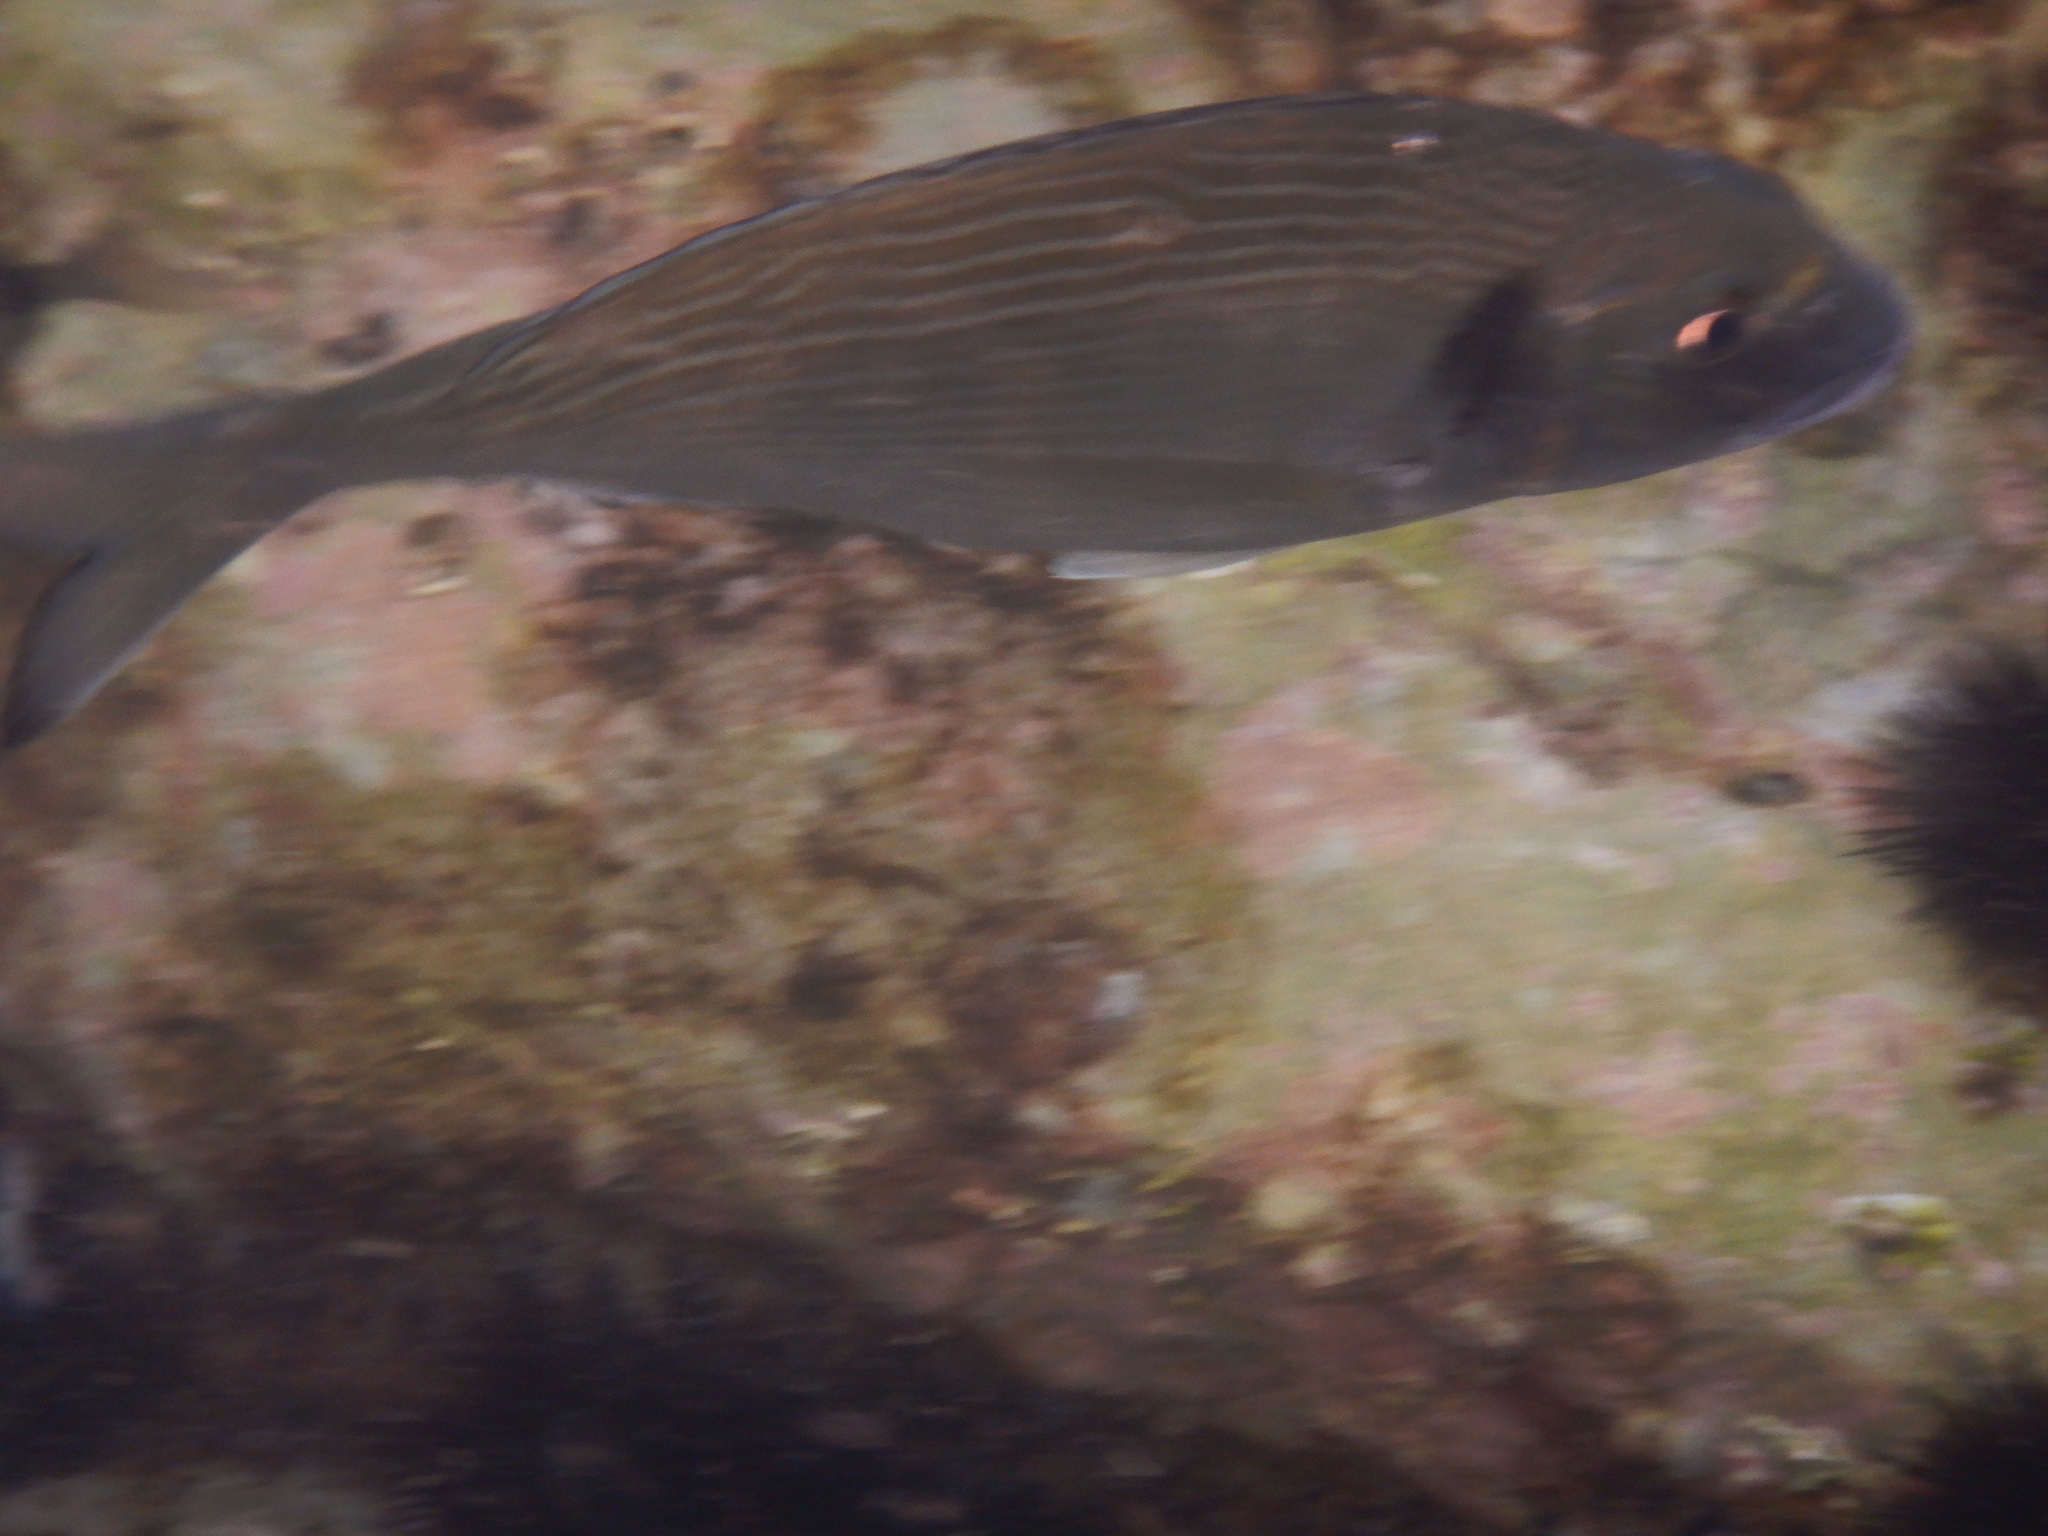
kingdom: Animalia
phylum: Chordata
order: Perciformes
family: Sparidae
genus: Sparus
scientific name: Sparus aurata
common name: Gilthead
